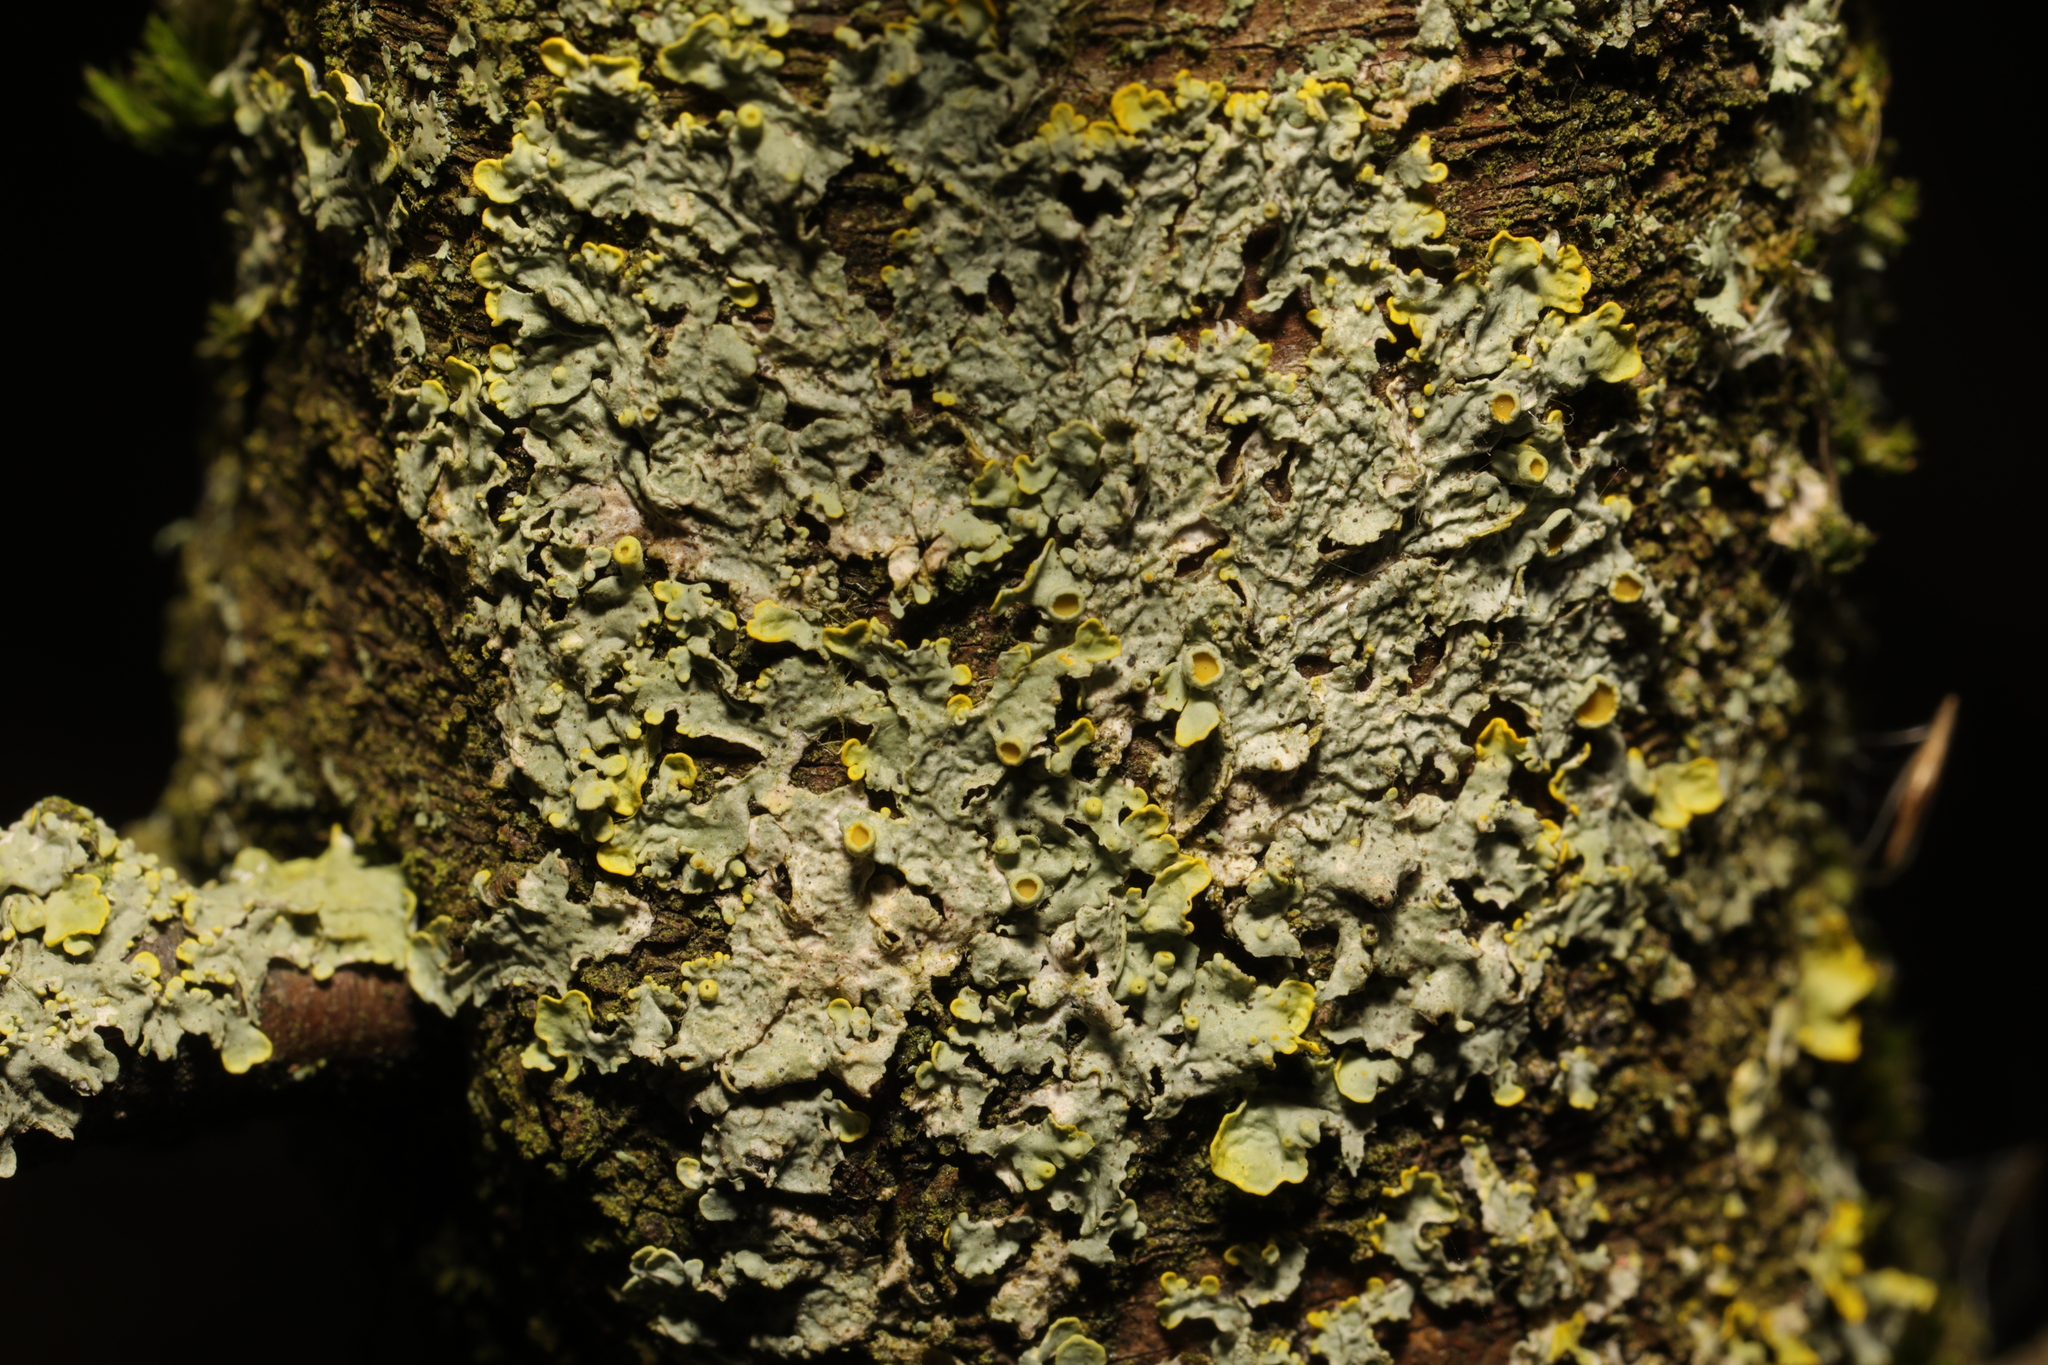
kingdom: Fungi
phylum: Ascomycota
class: Lecanoromycetes
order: Teloschistales
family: Teloschistaceae
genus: Xanthoria
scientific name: Xanthoria parietina
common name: Common orange lichen
